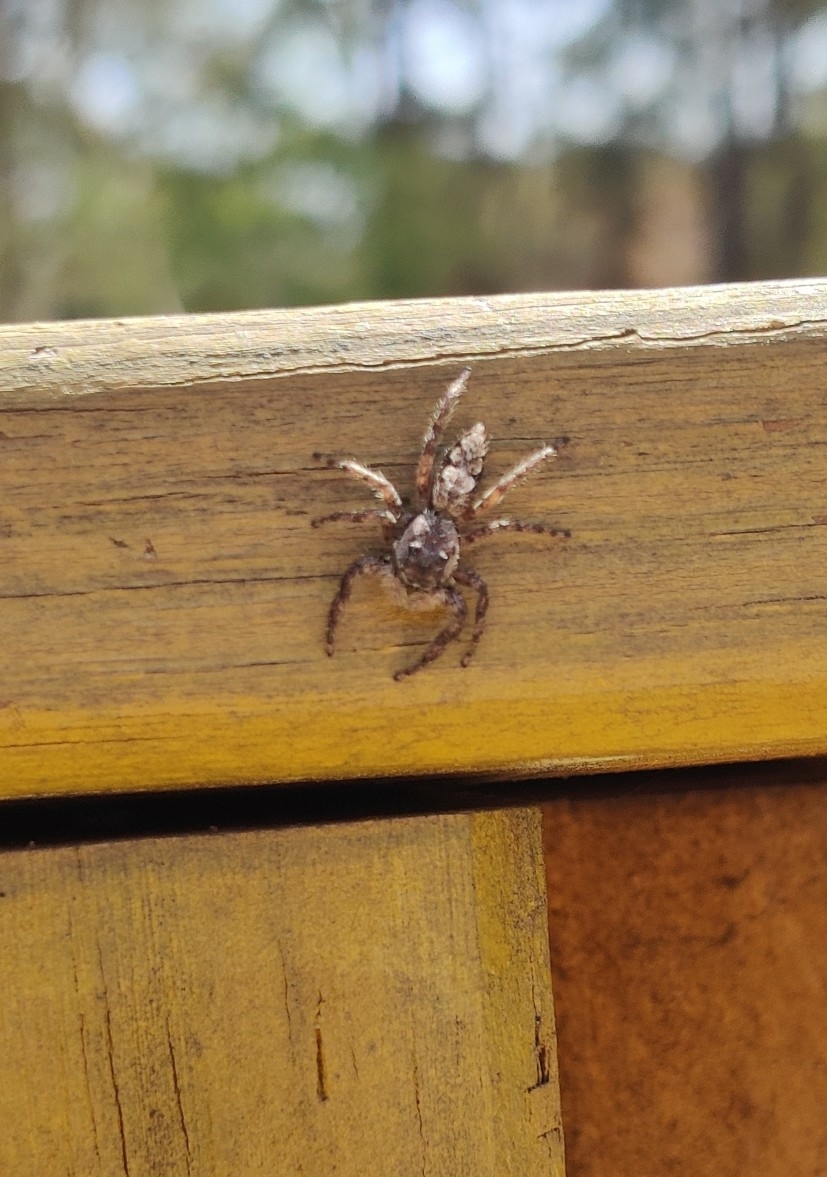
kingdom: Animalia
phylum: Arthropoda
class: Arachnida
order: Araneae
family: Salticidae
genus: Platycryptus
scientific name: Platycryptus undatus
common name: Tan jumping spider
